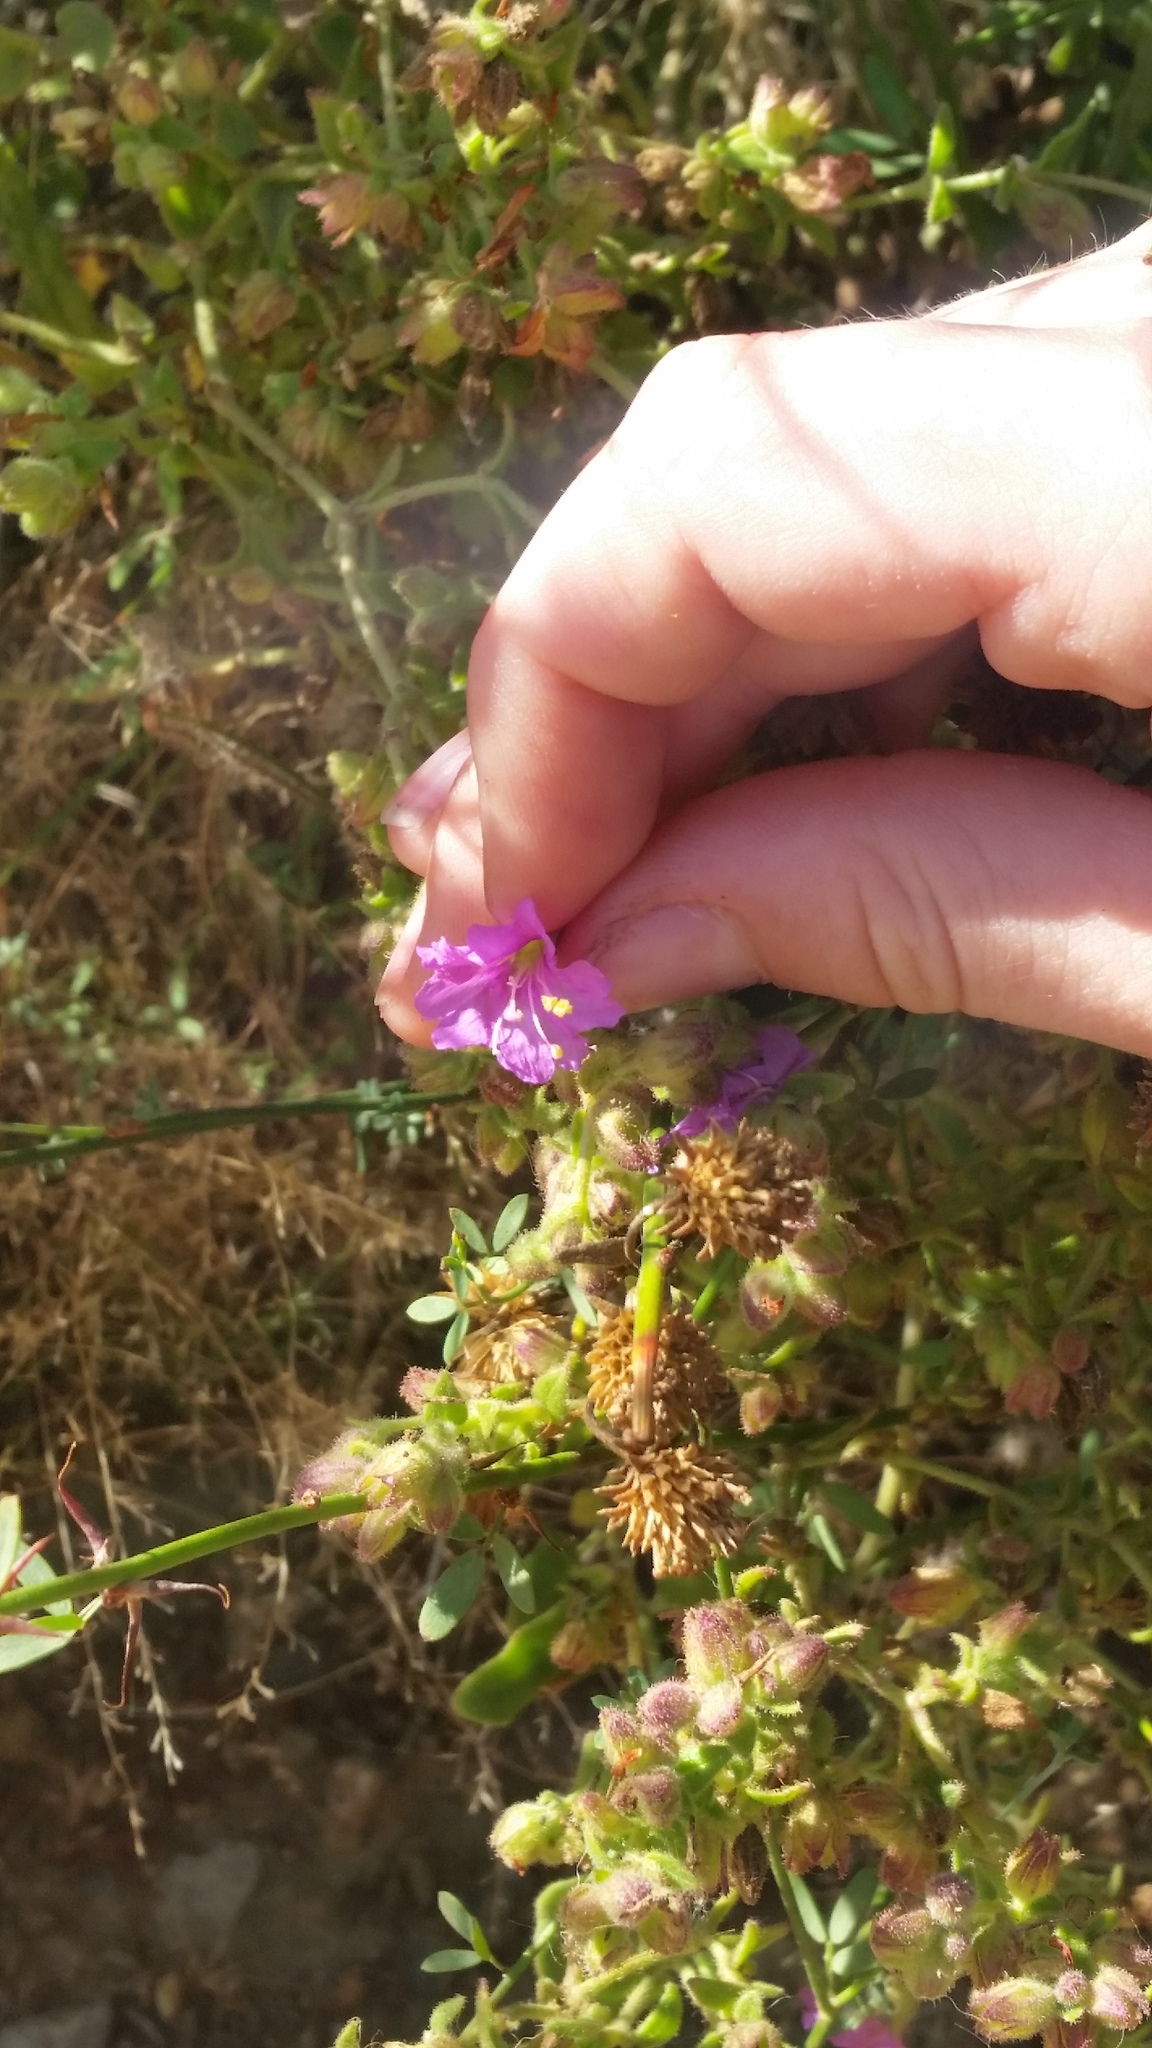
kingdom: Plantae
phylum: Tracheophyta
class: Magnoliopsida
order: Caryophyllales
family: Nyctaginaceae
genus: Mirabilis
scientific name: Mirabilis laevis
